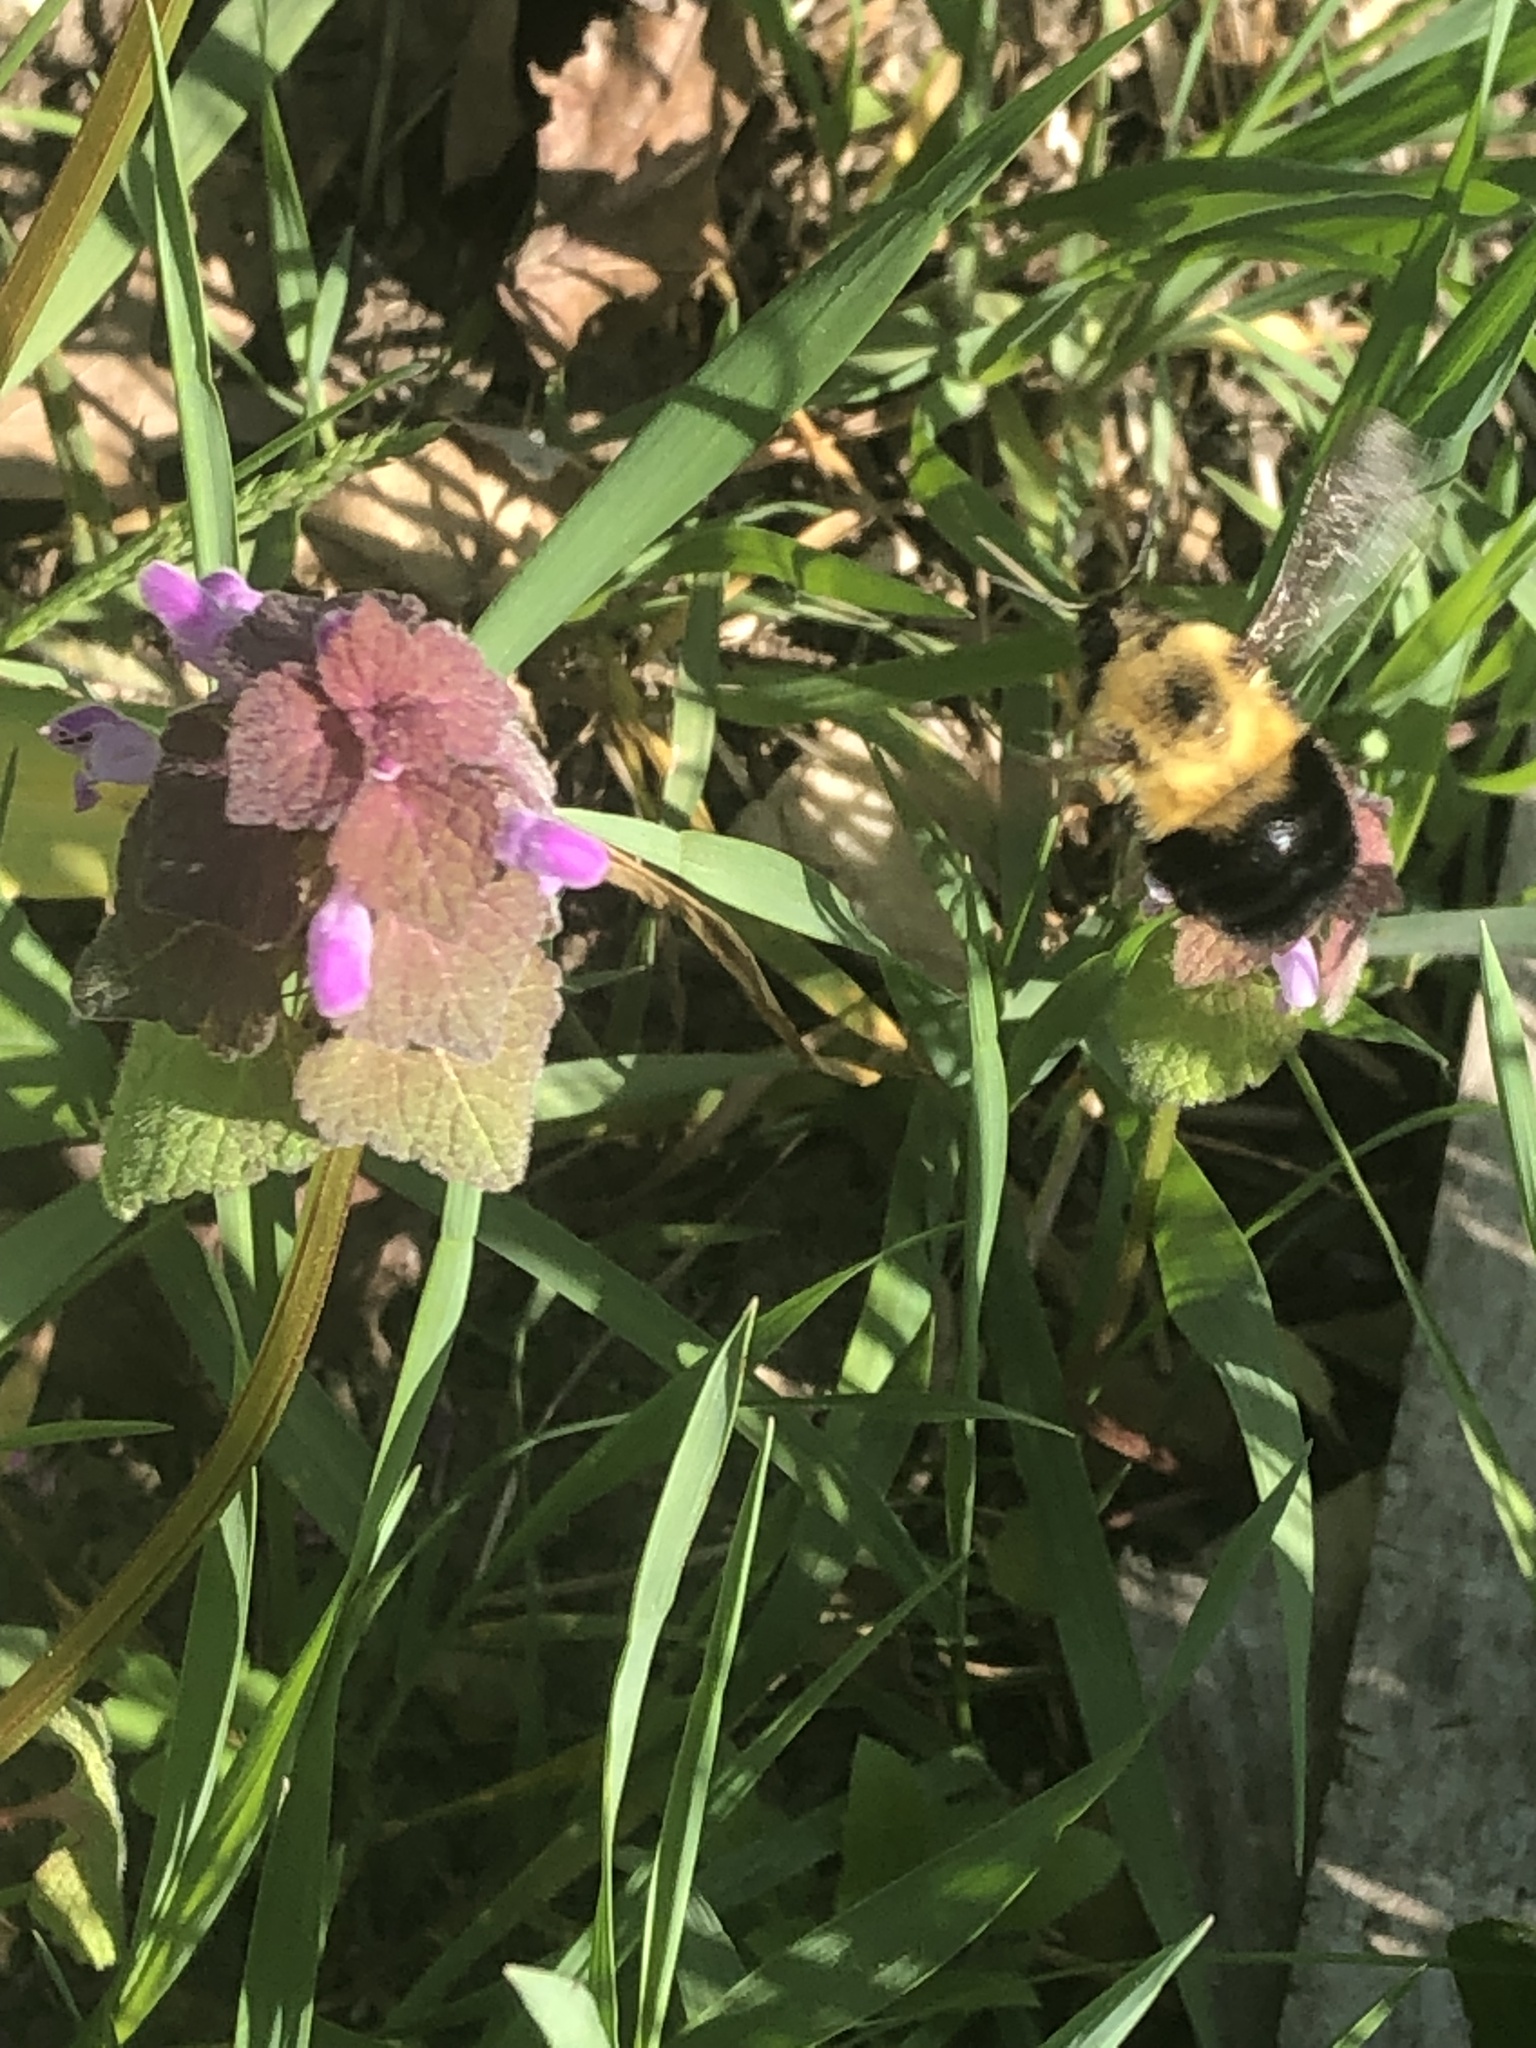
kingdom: Animalia
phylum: Arthropoda
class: Insecta
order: Hymenoptera
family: Apidae
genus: Bombus
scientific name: Bombus bimaculatus
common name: Two-spotted bumble bee
